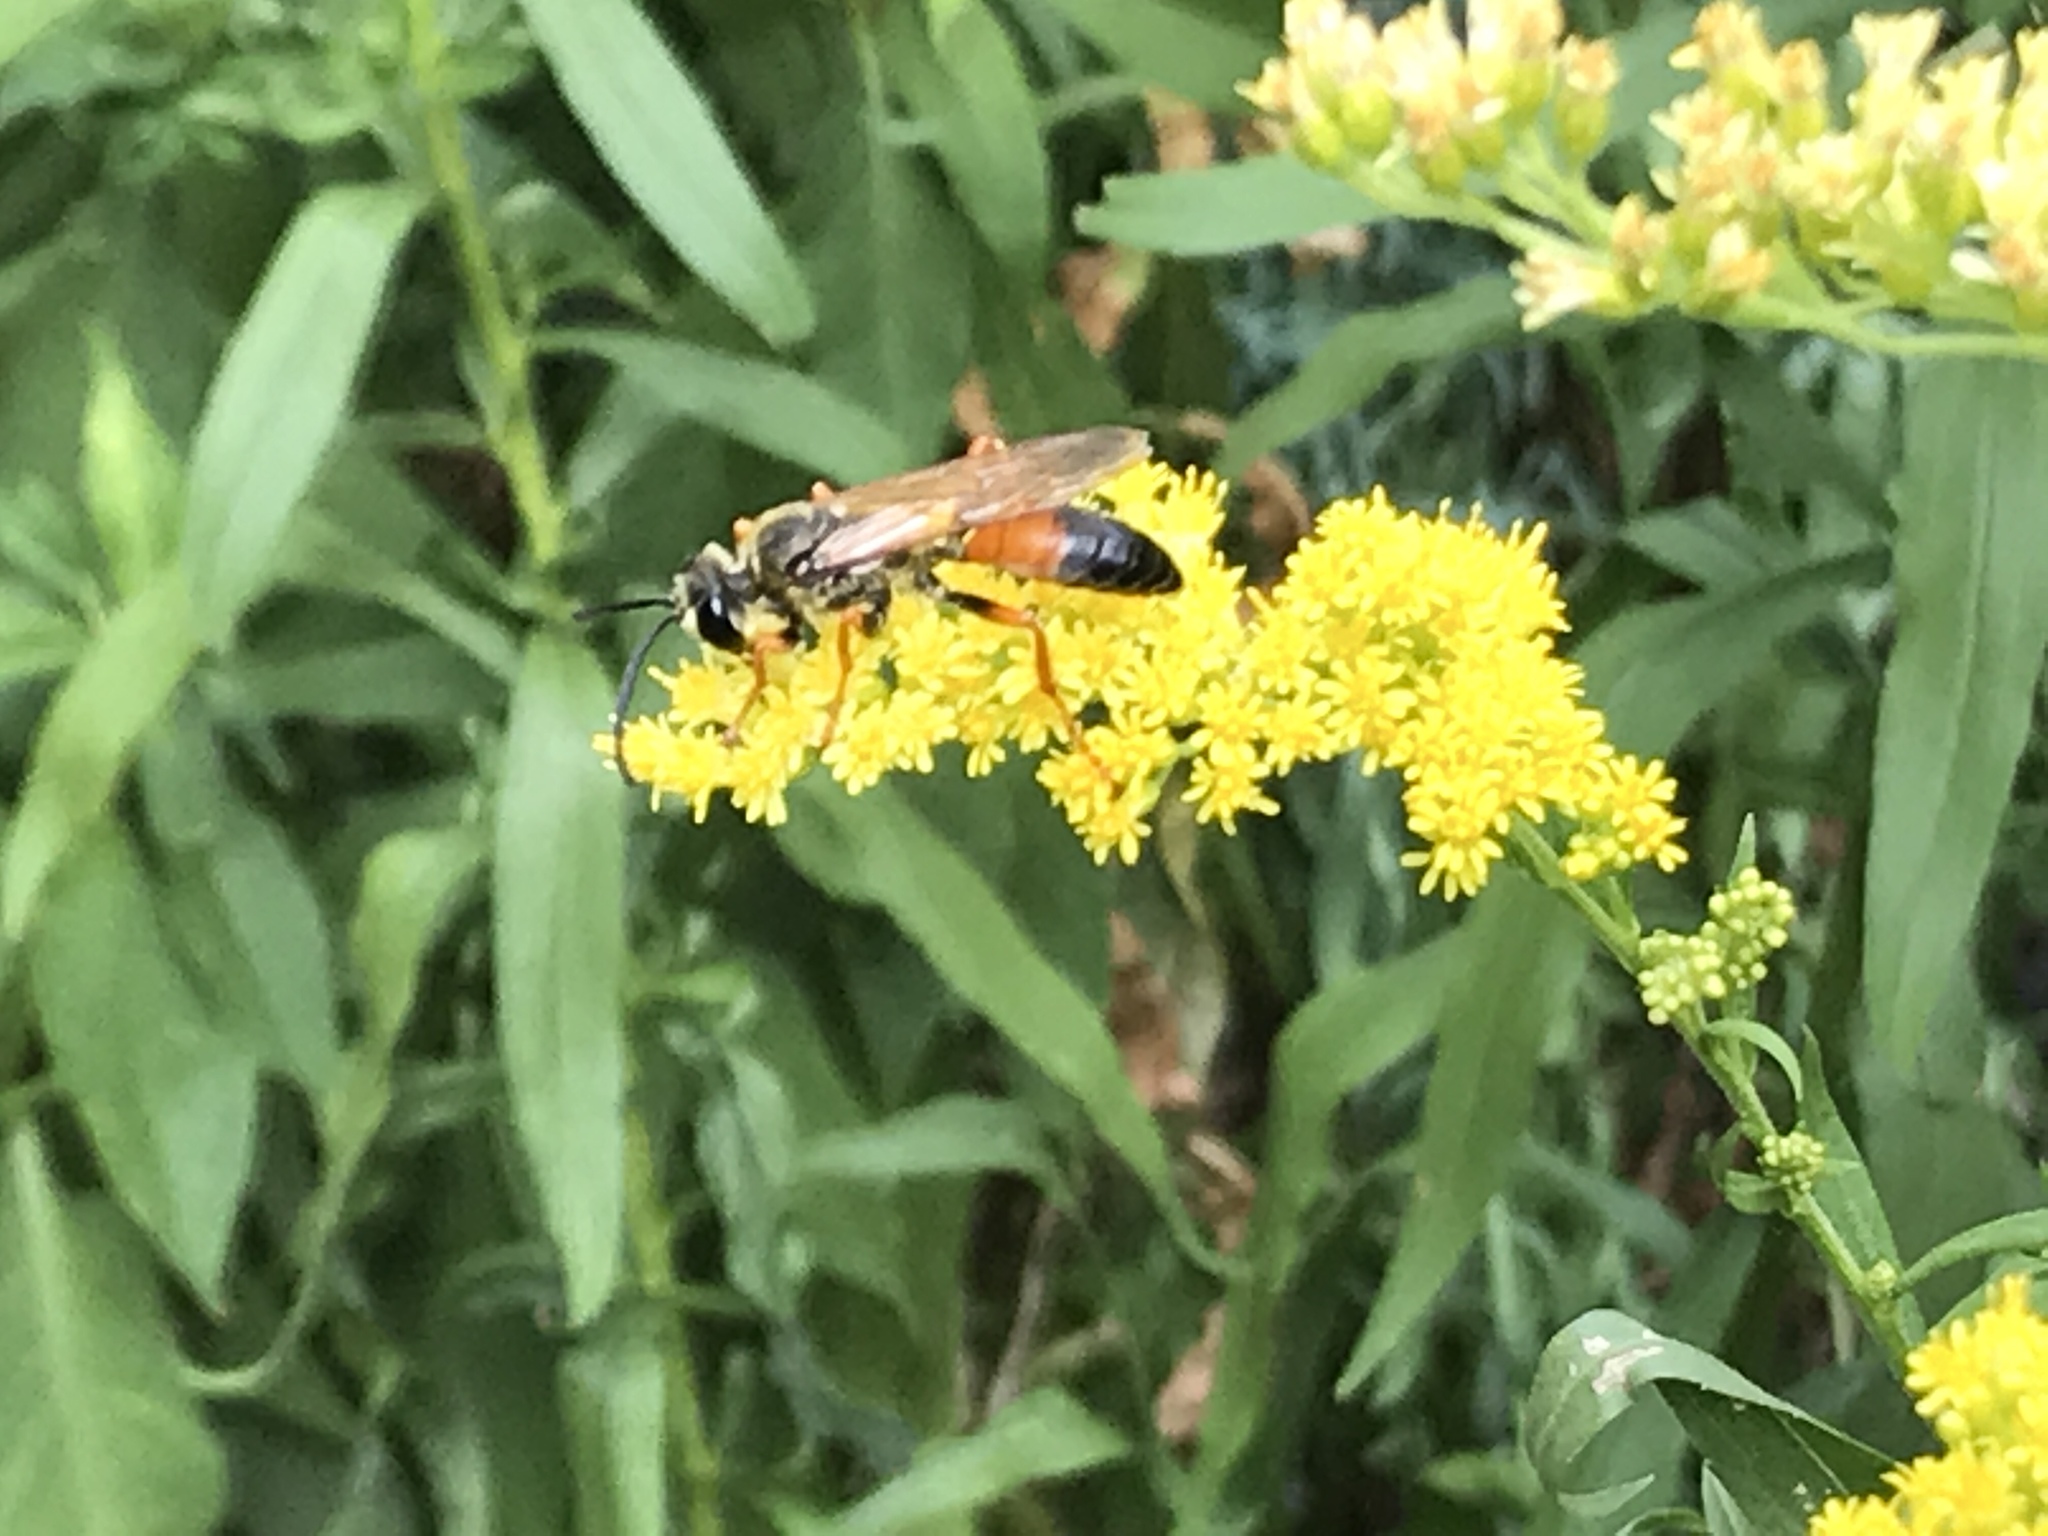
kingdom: Animalia
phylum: Arthropoda
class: Insecta
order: Hymenoptera
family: Sphecidae
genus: Sphex
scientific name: Sphex ichneumoneus
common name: Great golden digger wasp
